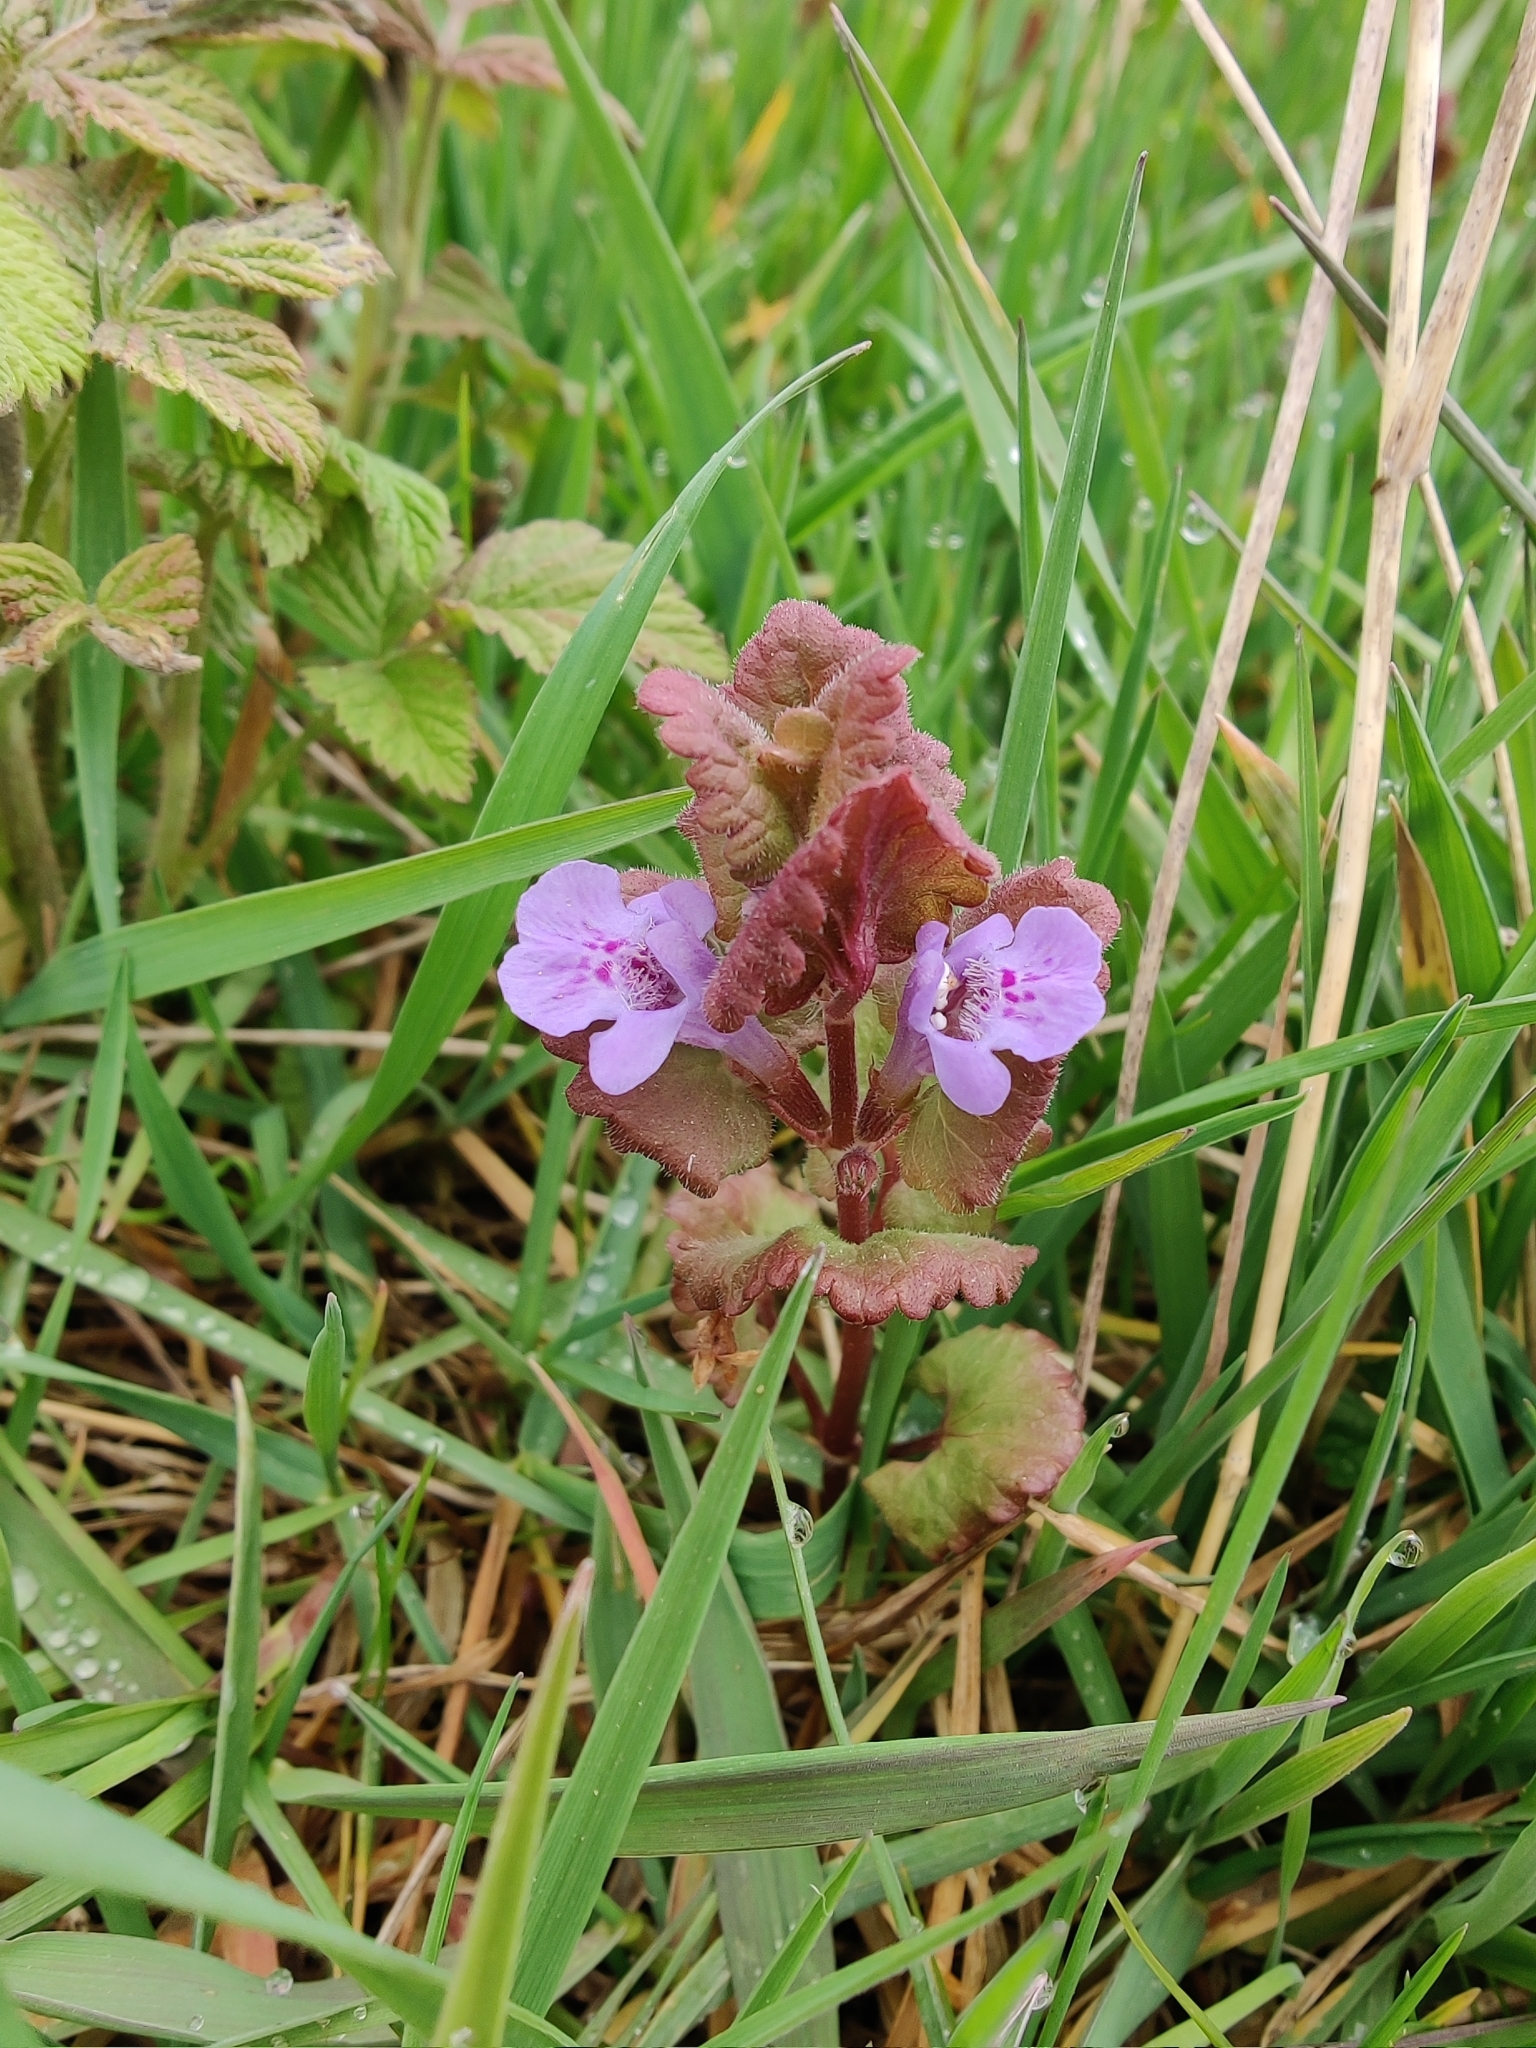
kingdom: Plantae
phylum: Tracheophyta
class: Magnoliopsida
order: Lamiales
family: Lamiaceae
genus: Glechoma
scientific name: Glechoma hederacea
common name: Ground ivy
